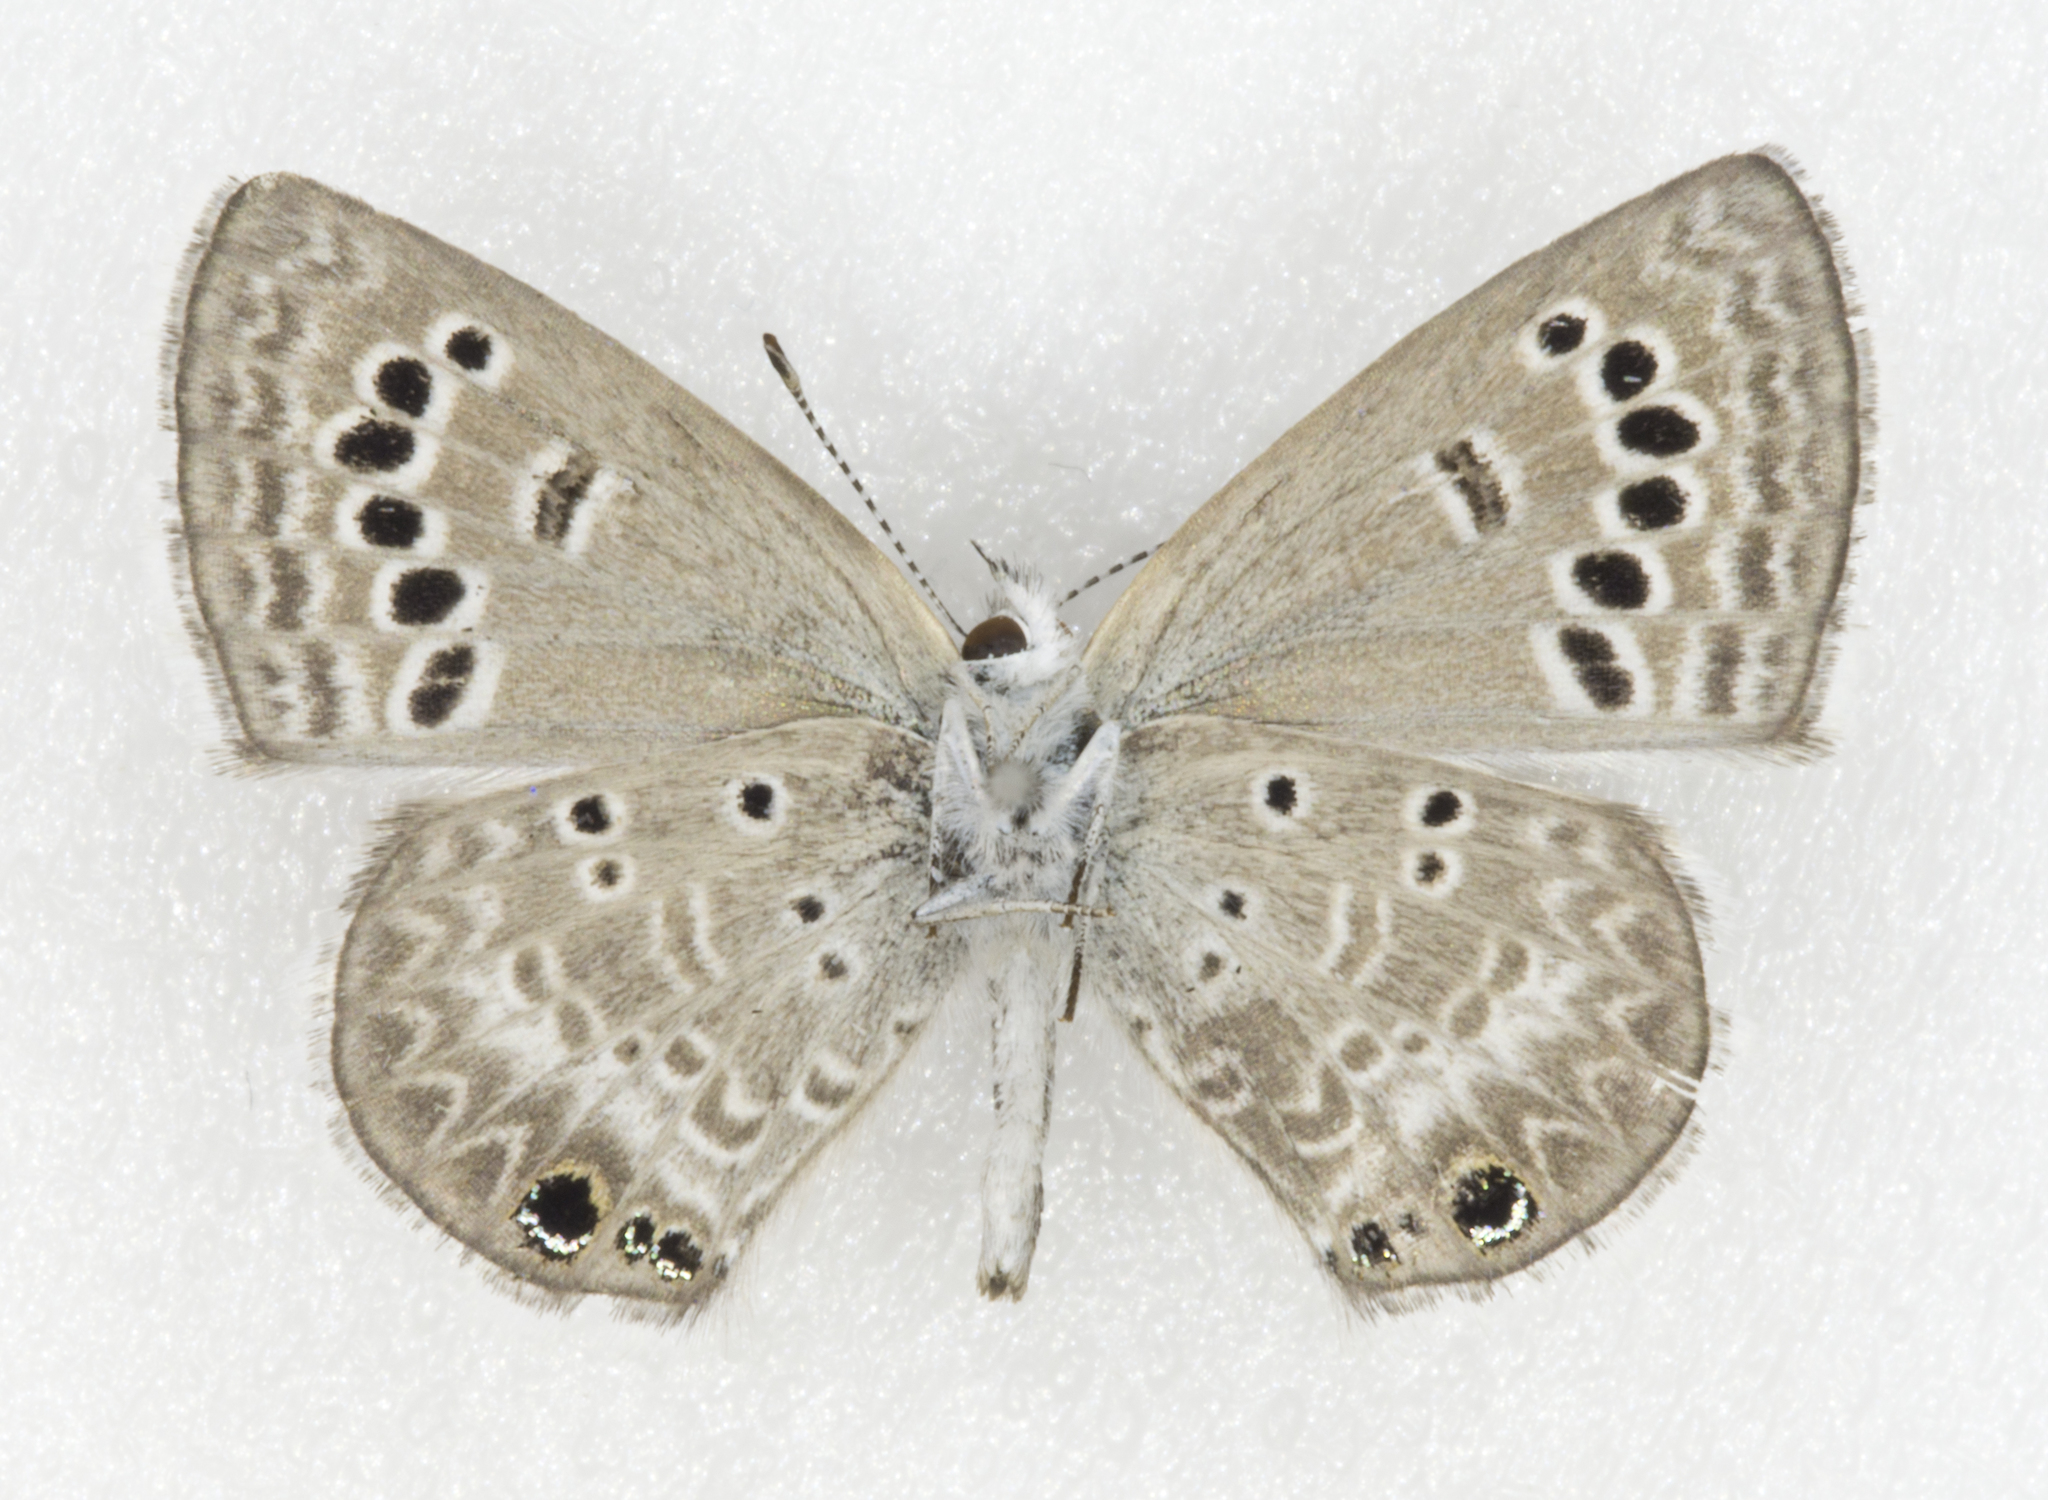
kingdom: Animalia
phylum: Arthropoda
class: Insecta
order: Lepidoptera
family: Lycaenidae
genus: Echinargus
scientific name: Echinargus isola
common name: Reakirt's blue
